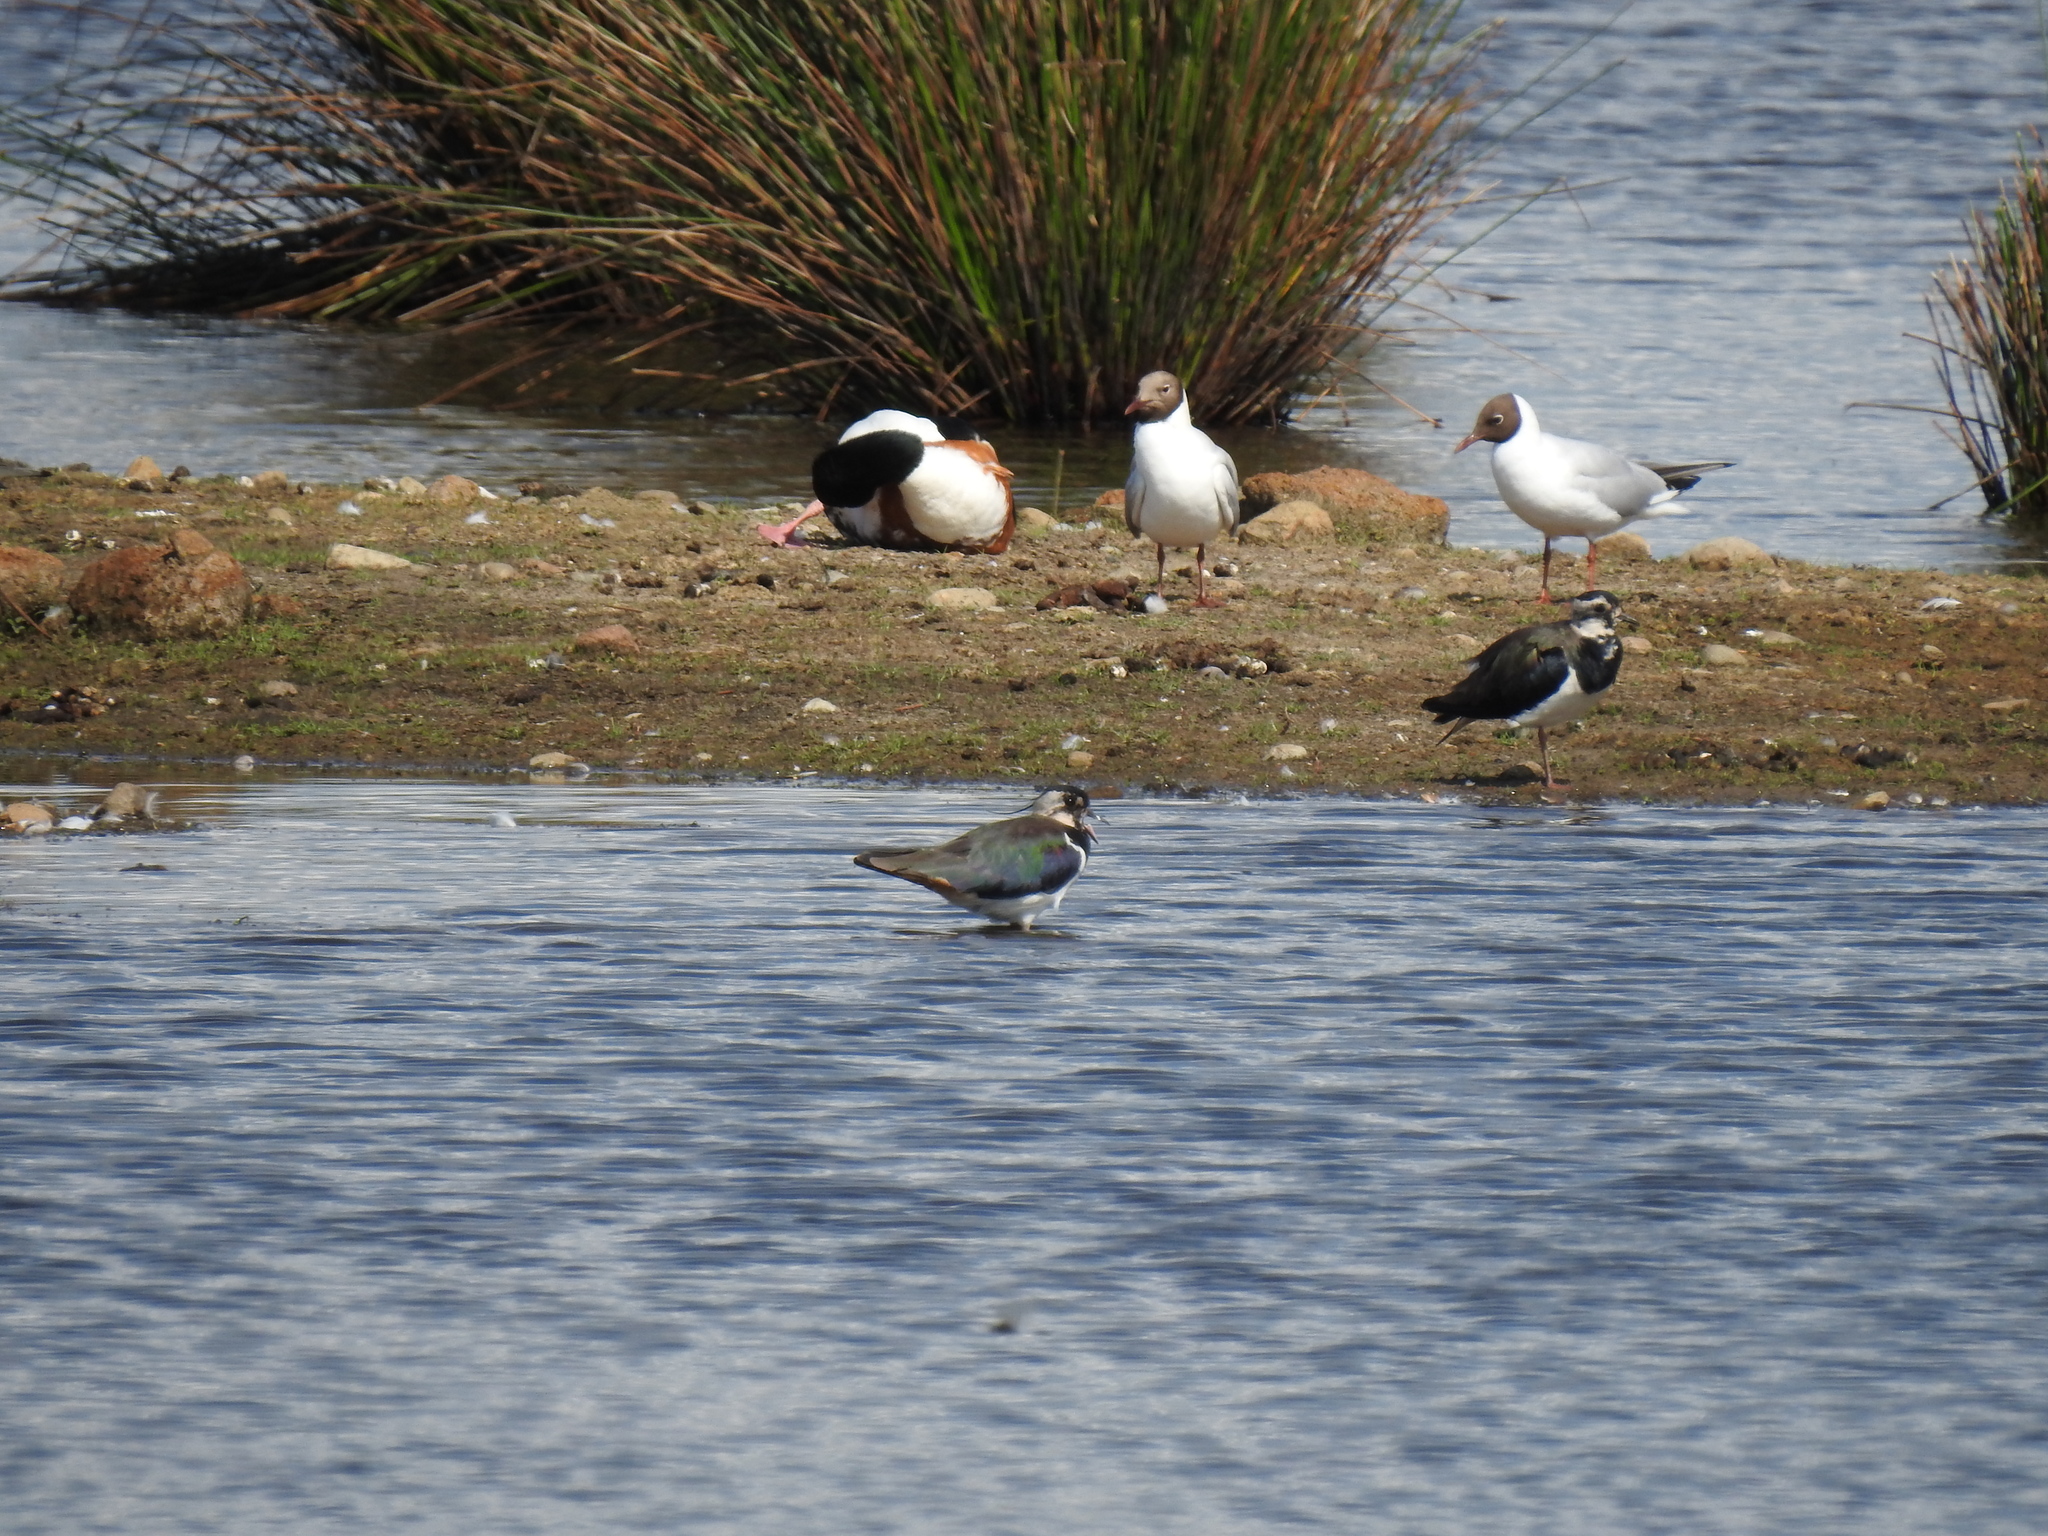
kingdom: Animalia
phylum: Chordata
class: Aves
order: Anseriformes
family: Anatidae
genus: Tadorna
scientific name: Tadorna tadorna
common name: Common shelduck
